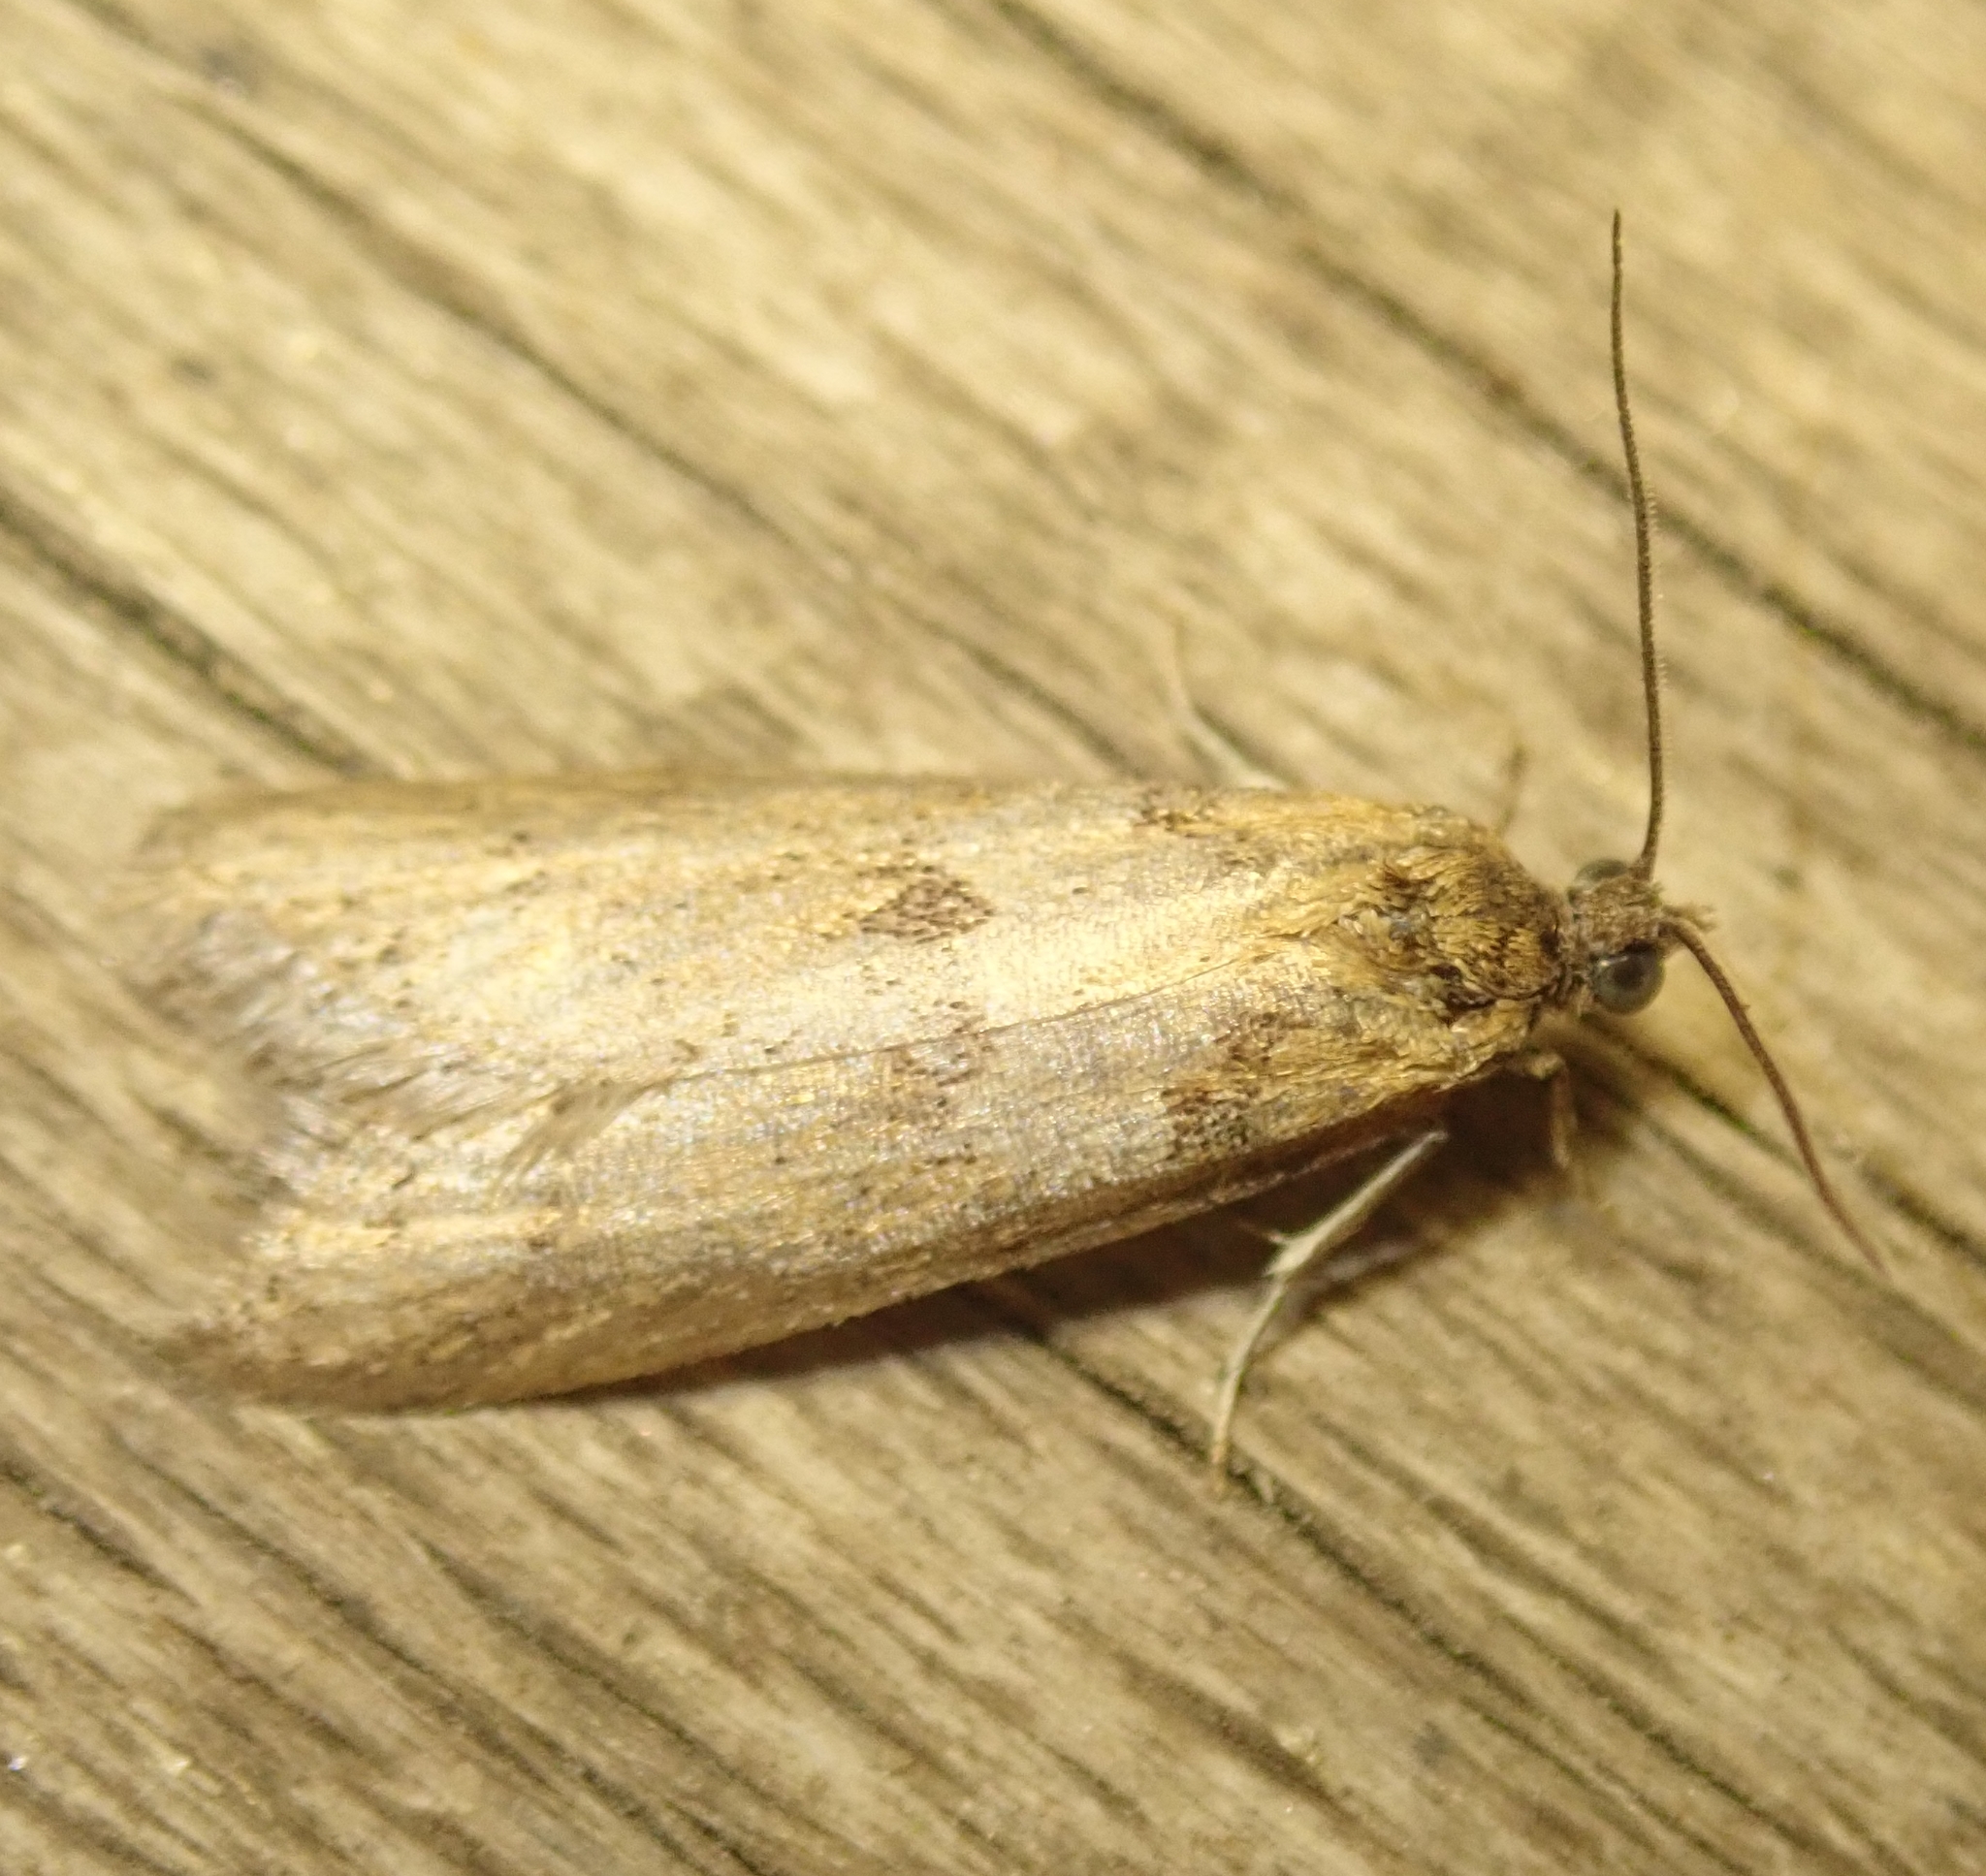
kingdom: Animalia
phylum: Arthropoda
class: Insecta
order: Lepidoptera
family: Tortricidae
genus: Tortricodes
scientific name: Tortricodes alternella
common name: Winter shade
